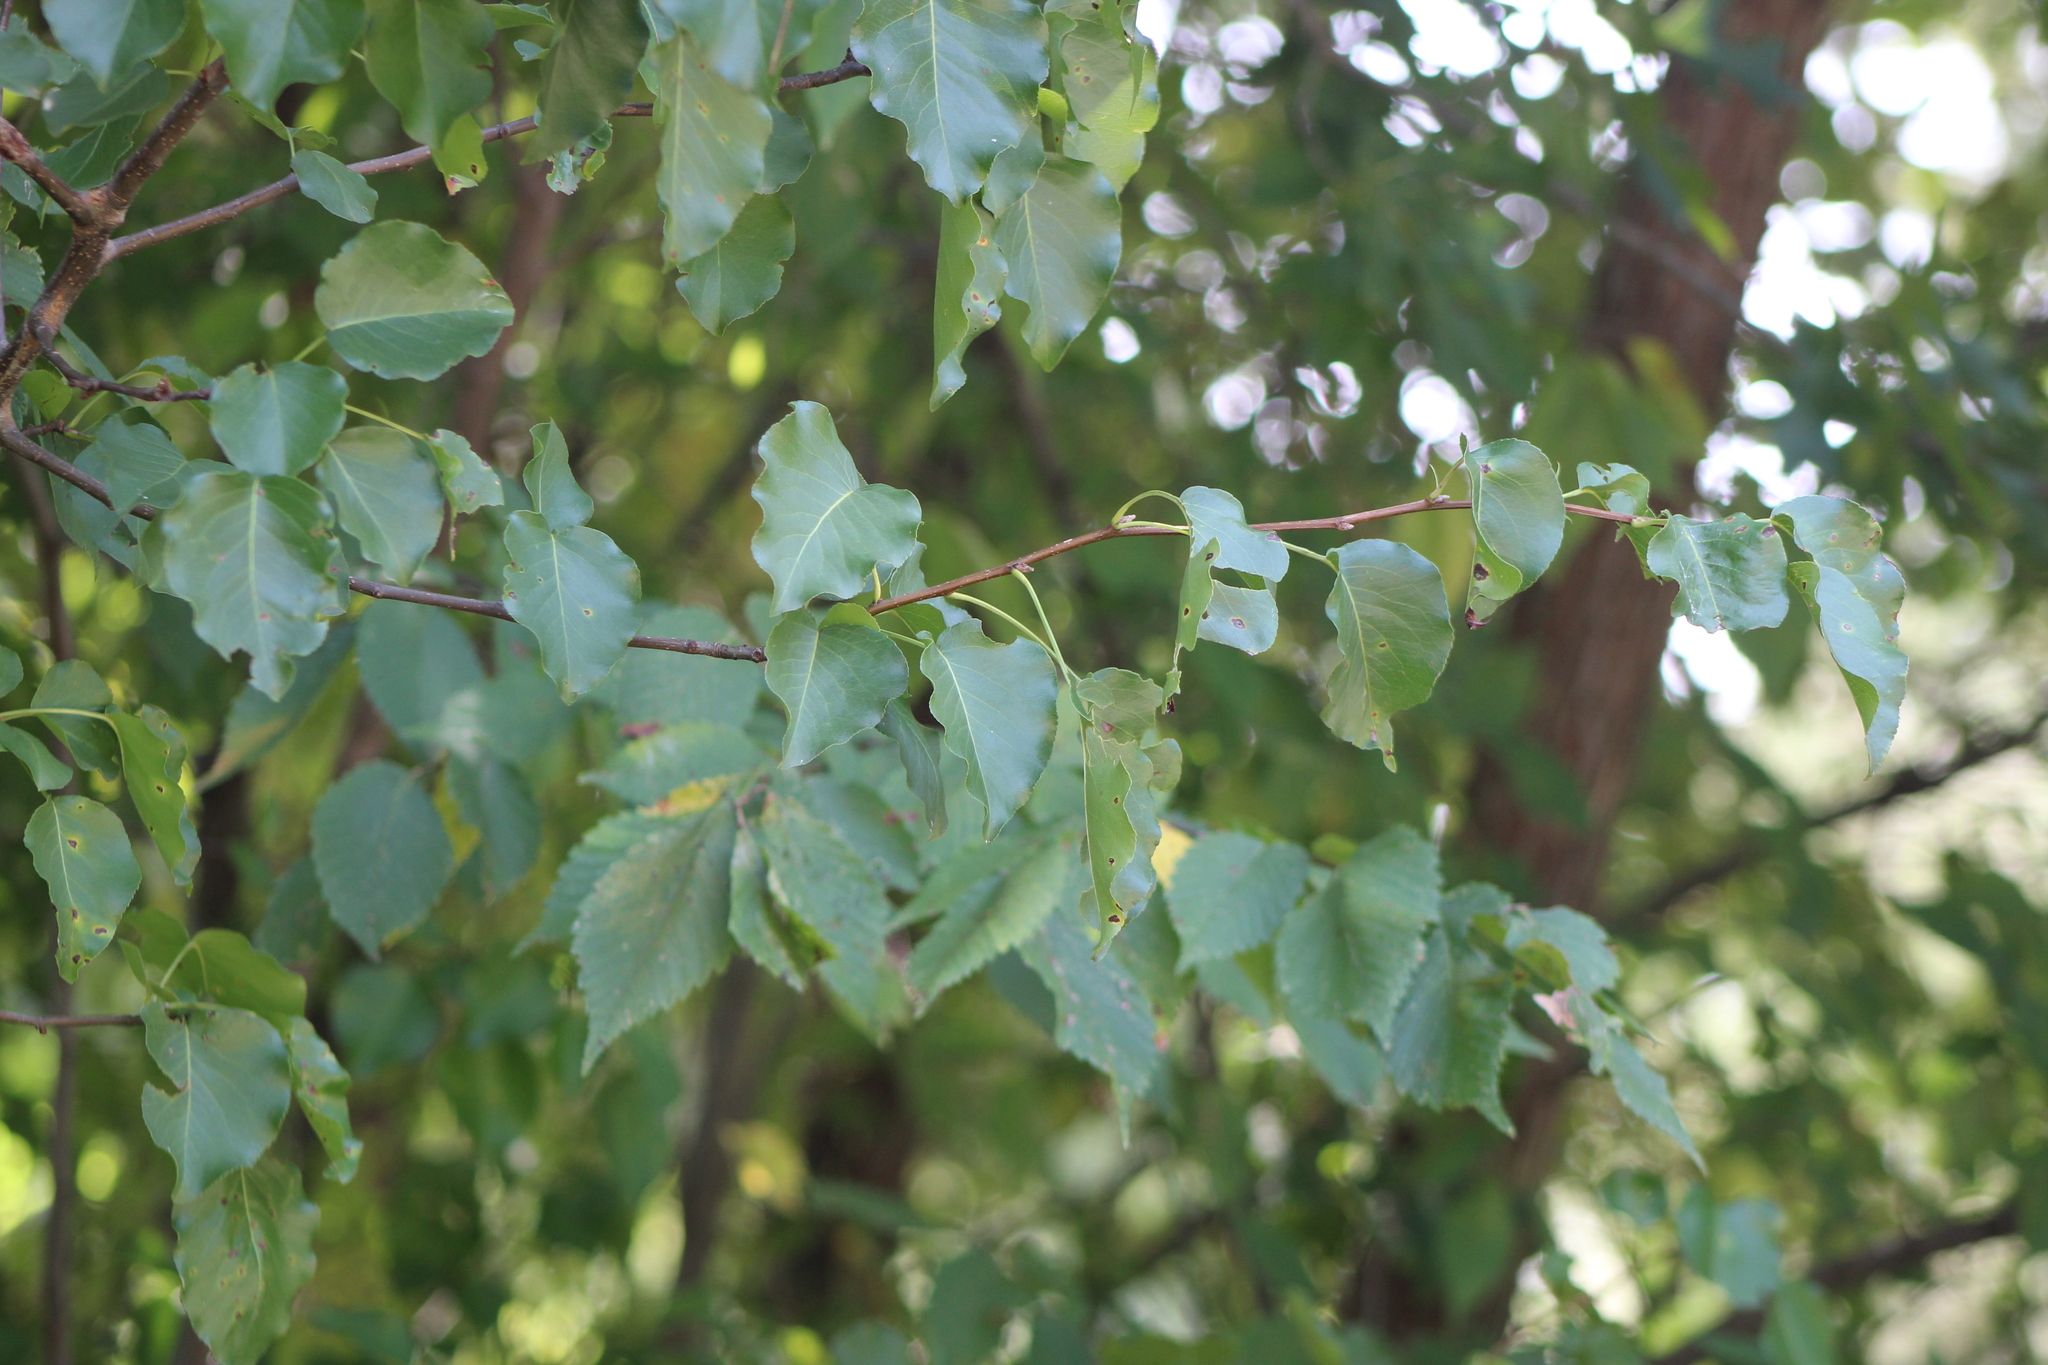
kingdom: Plantae
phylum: Tracheophyta
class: Magnoliopsida
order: Rosales
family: Rosaceae
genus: Pyrus
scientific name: Pyrus calleryana
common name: Callery pear
